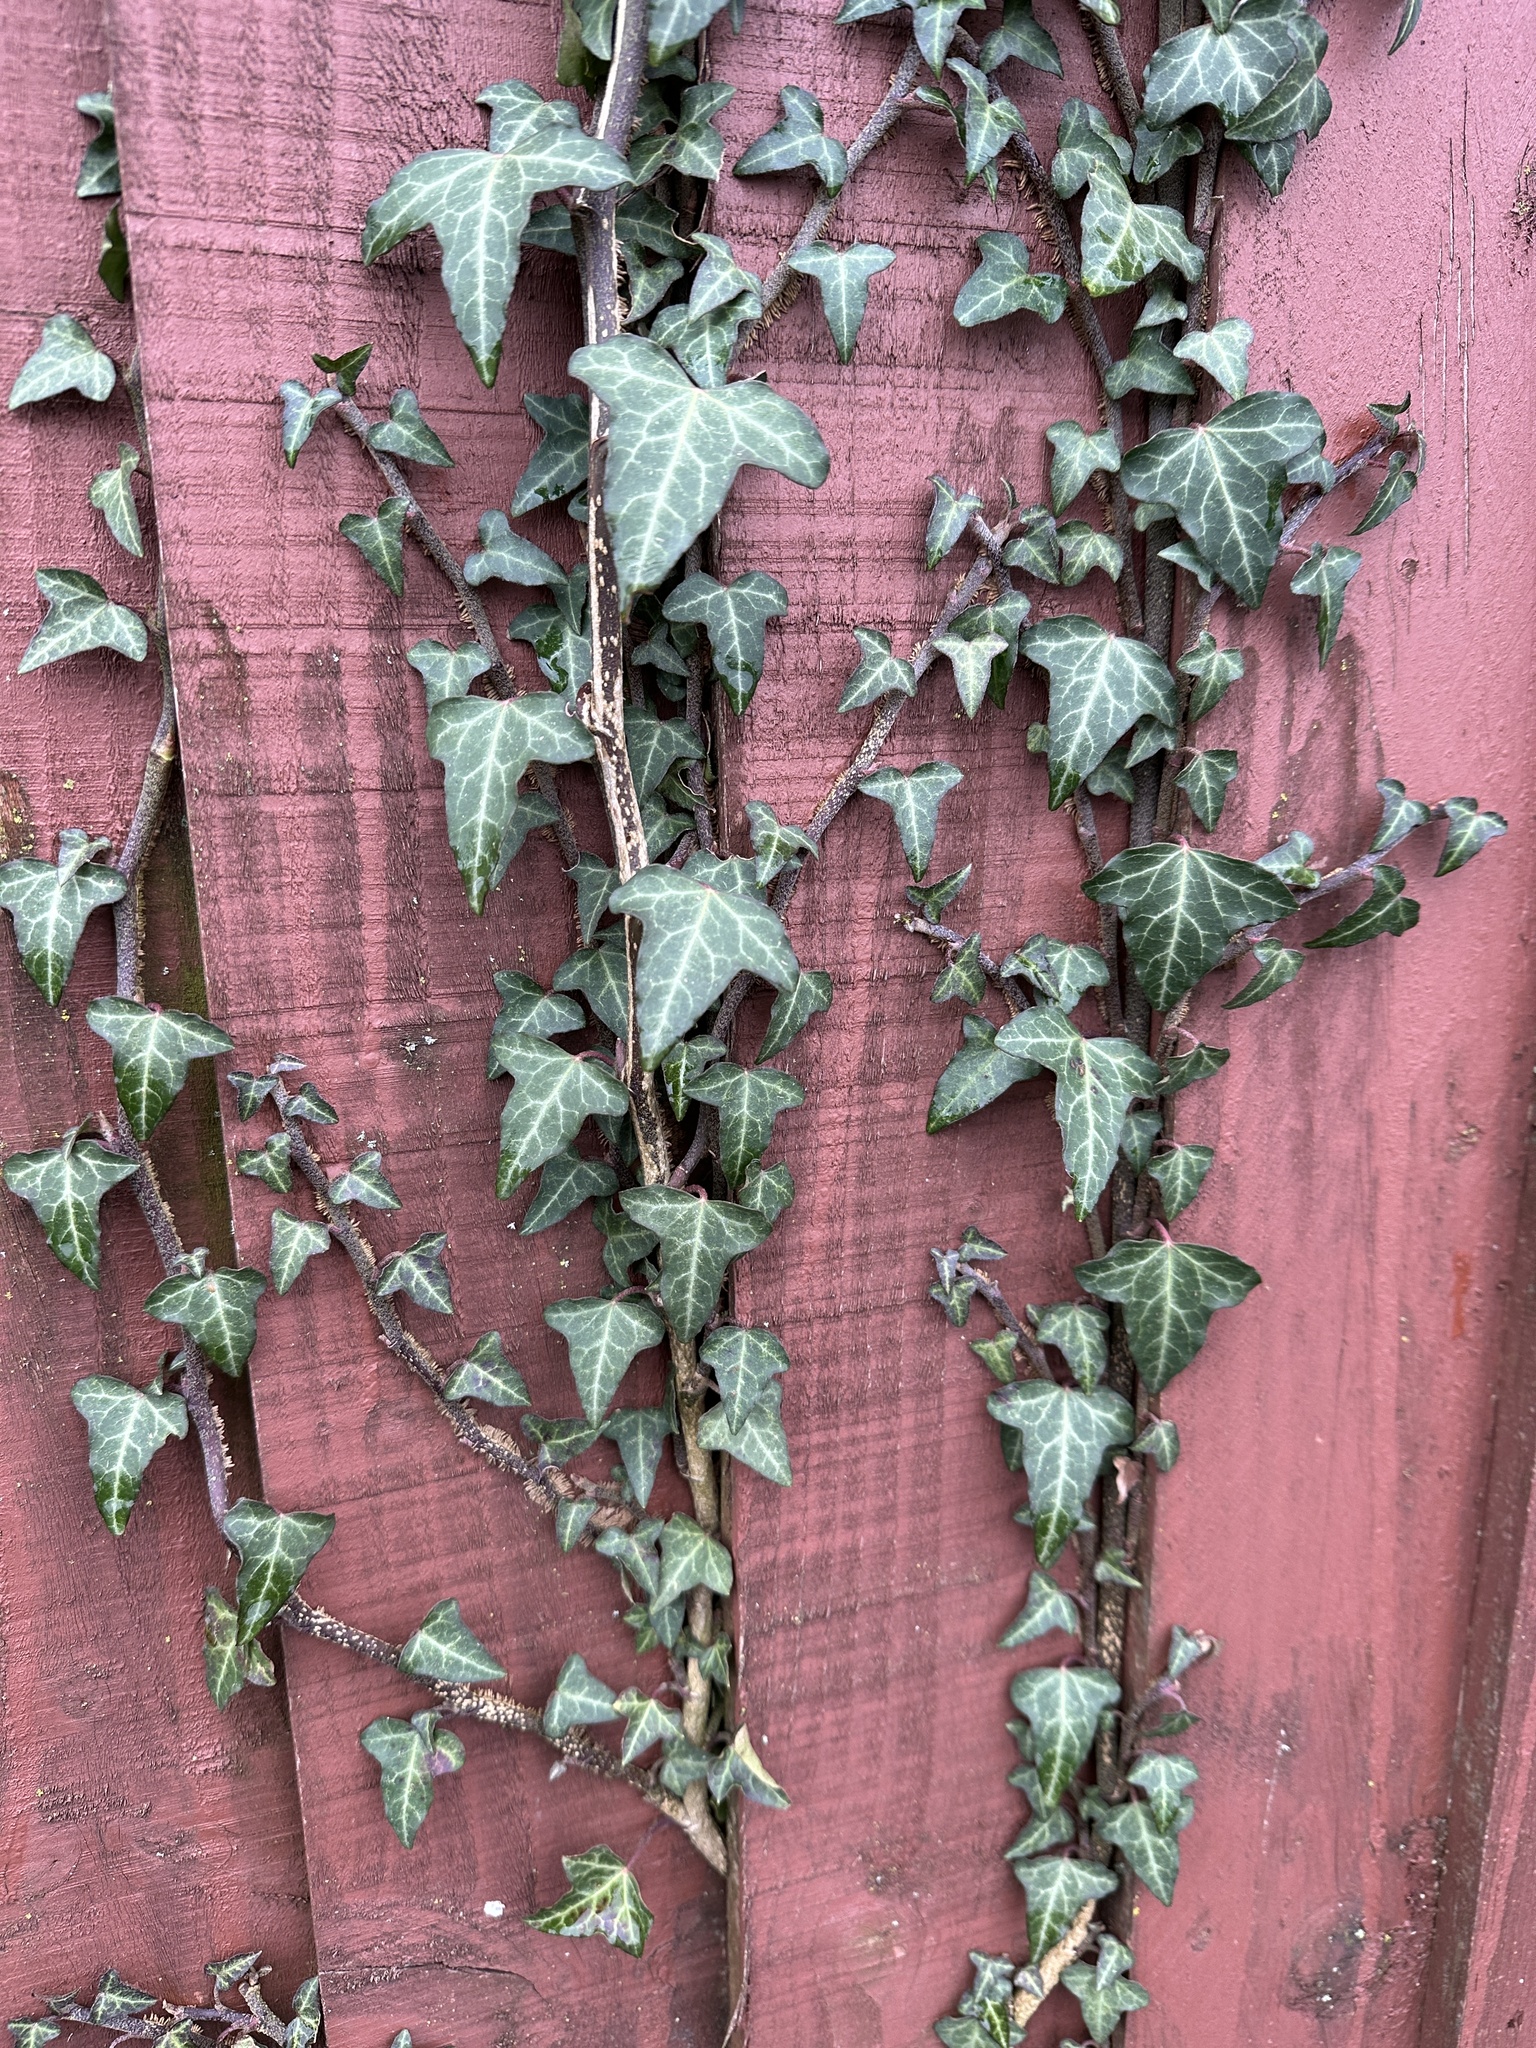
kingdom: Plantae
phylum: Tracheophyta
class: Magnoliopsida
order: Apiales
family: Araliaceae
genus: Hedera
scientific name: Hedera helix
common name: Ivy
